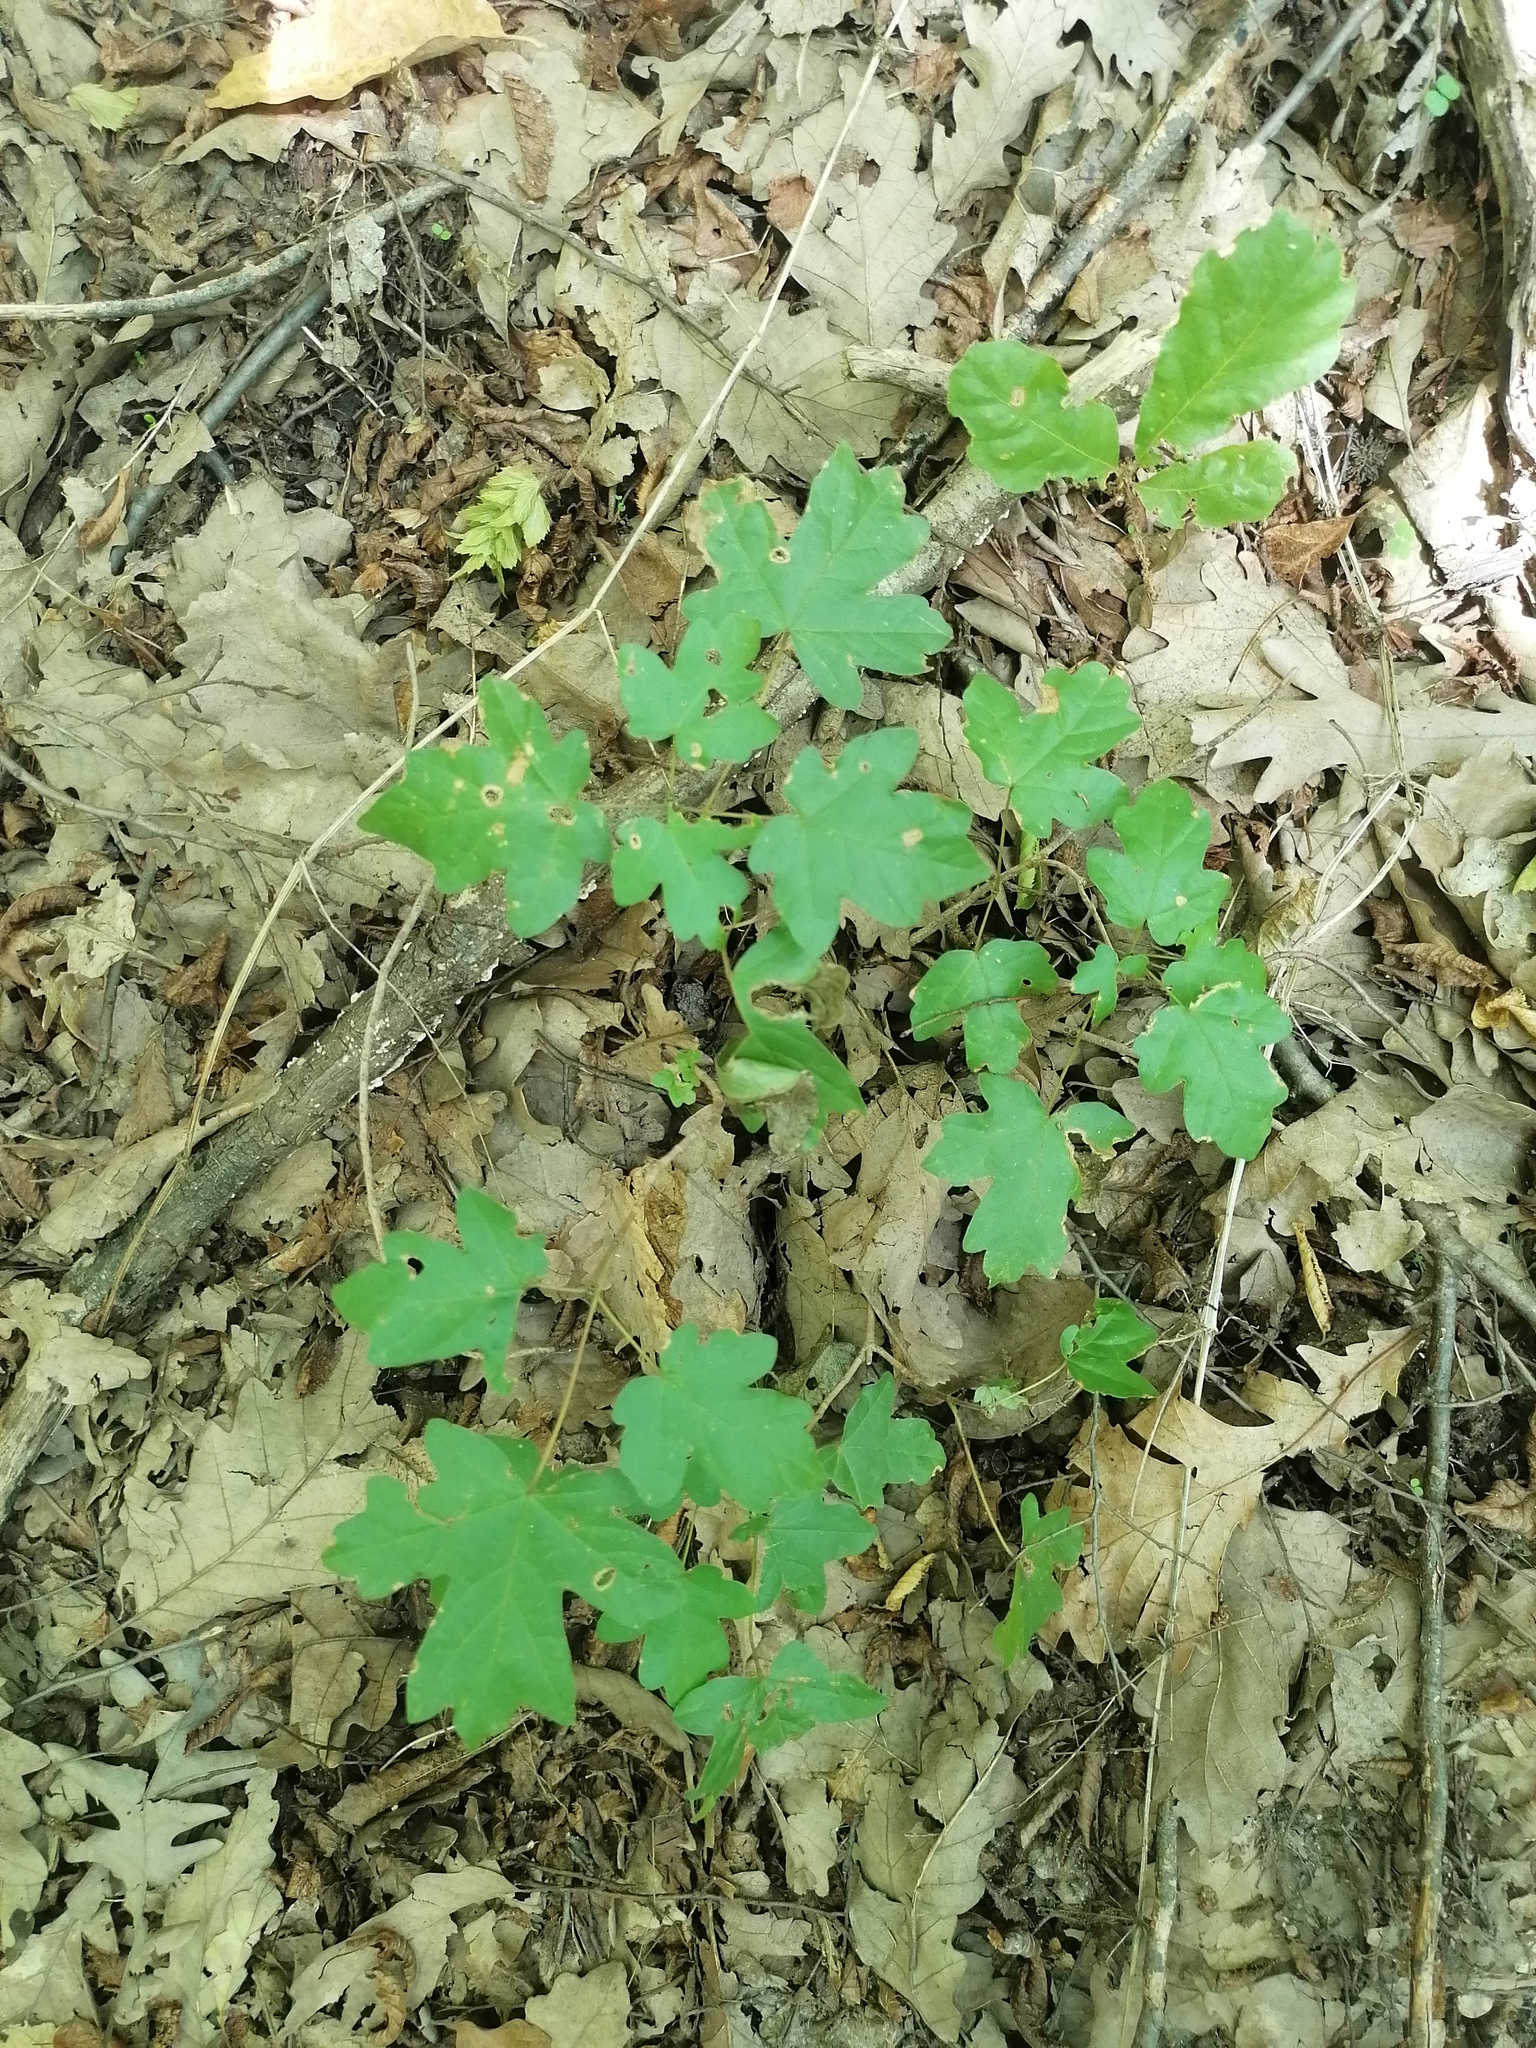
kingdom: Plantae
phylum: Tracheophyta
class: Magnoliopsida
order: Sapindales
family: Sapindaceae
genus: Acer
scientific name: Acer campestre
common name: Field maple
